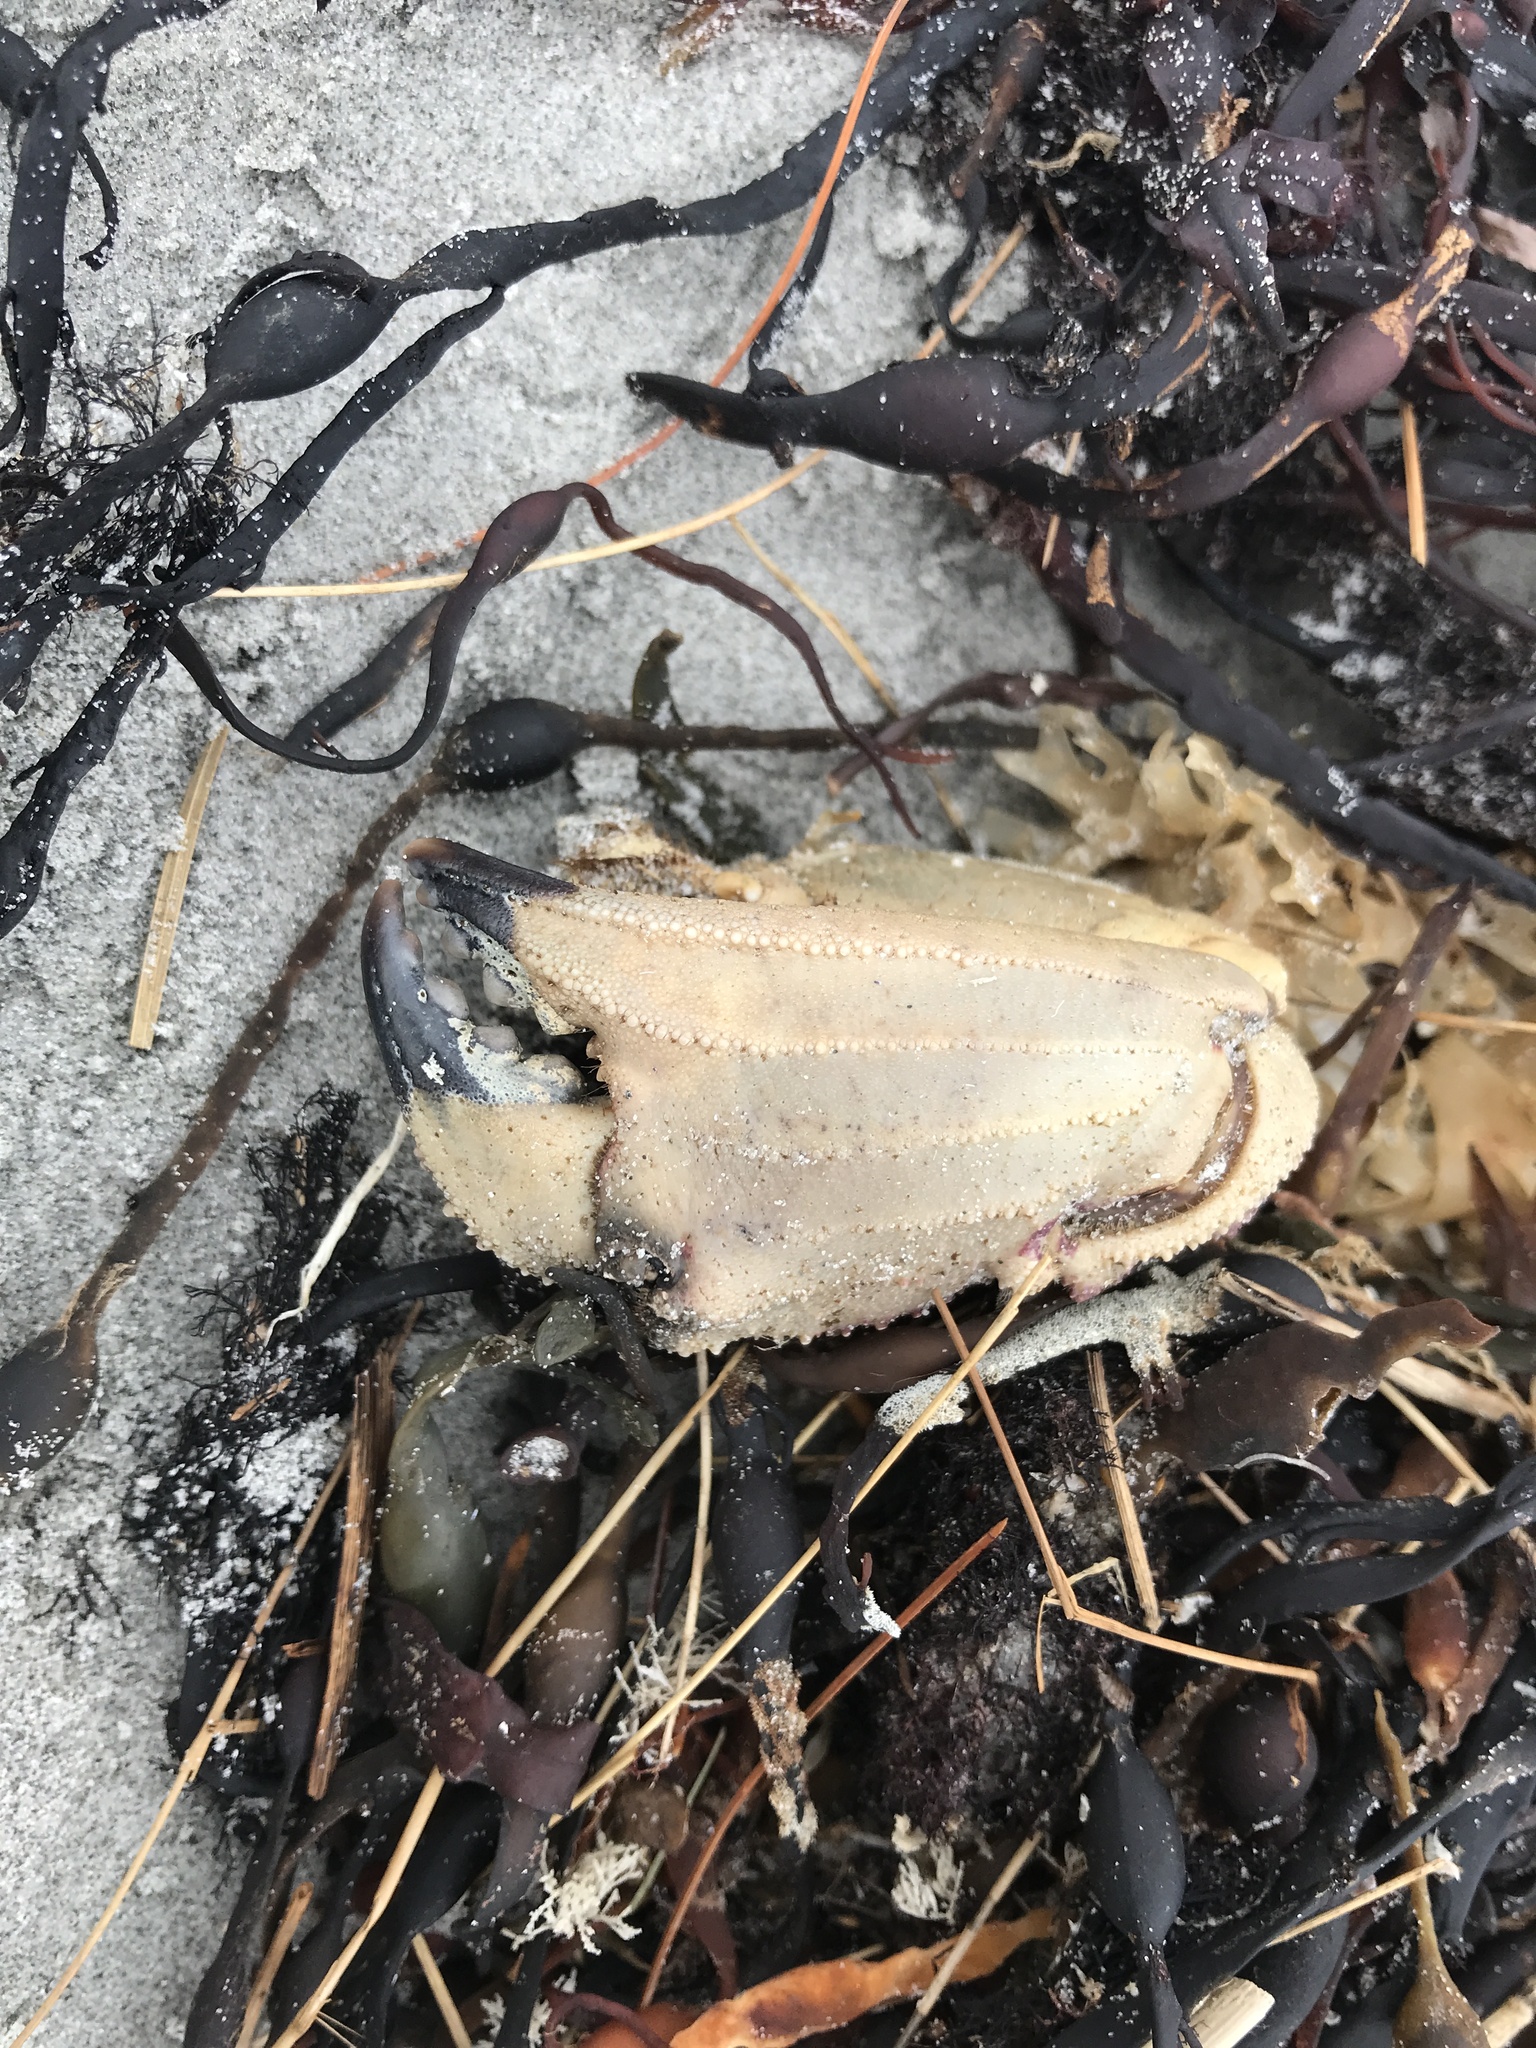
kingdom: Animalia
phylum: Arthropoda
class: Malacostraca
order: Decapoda
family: Cancridae
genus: Cancer
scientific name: Cancer borealis
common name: Jonah crab
